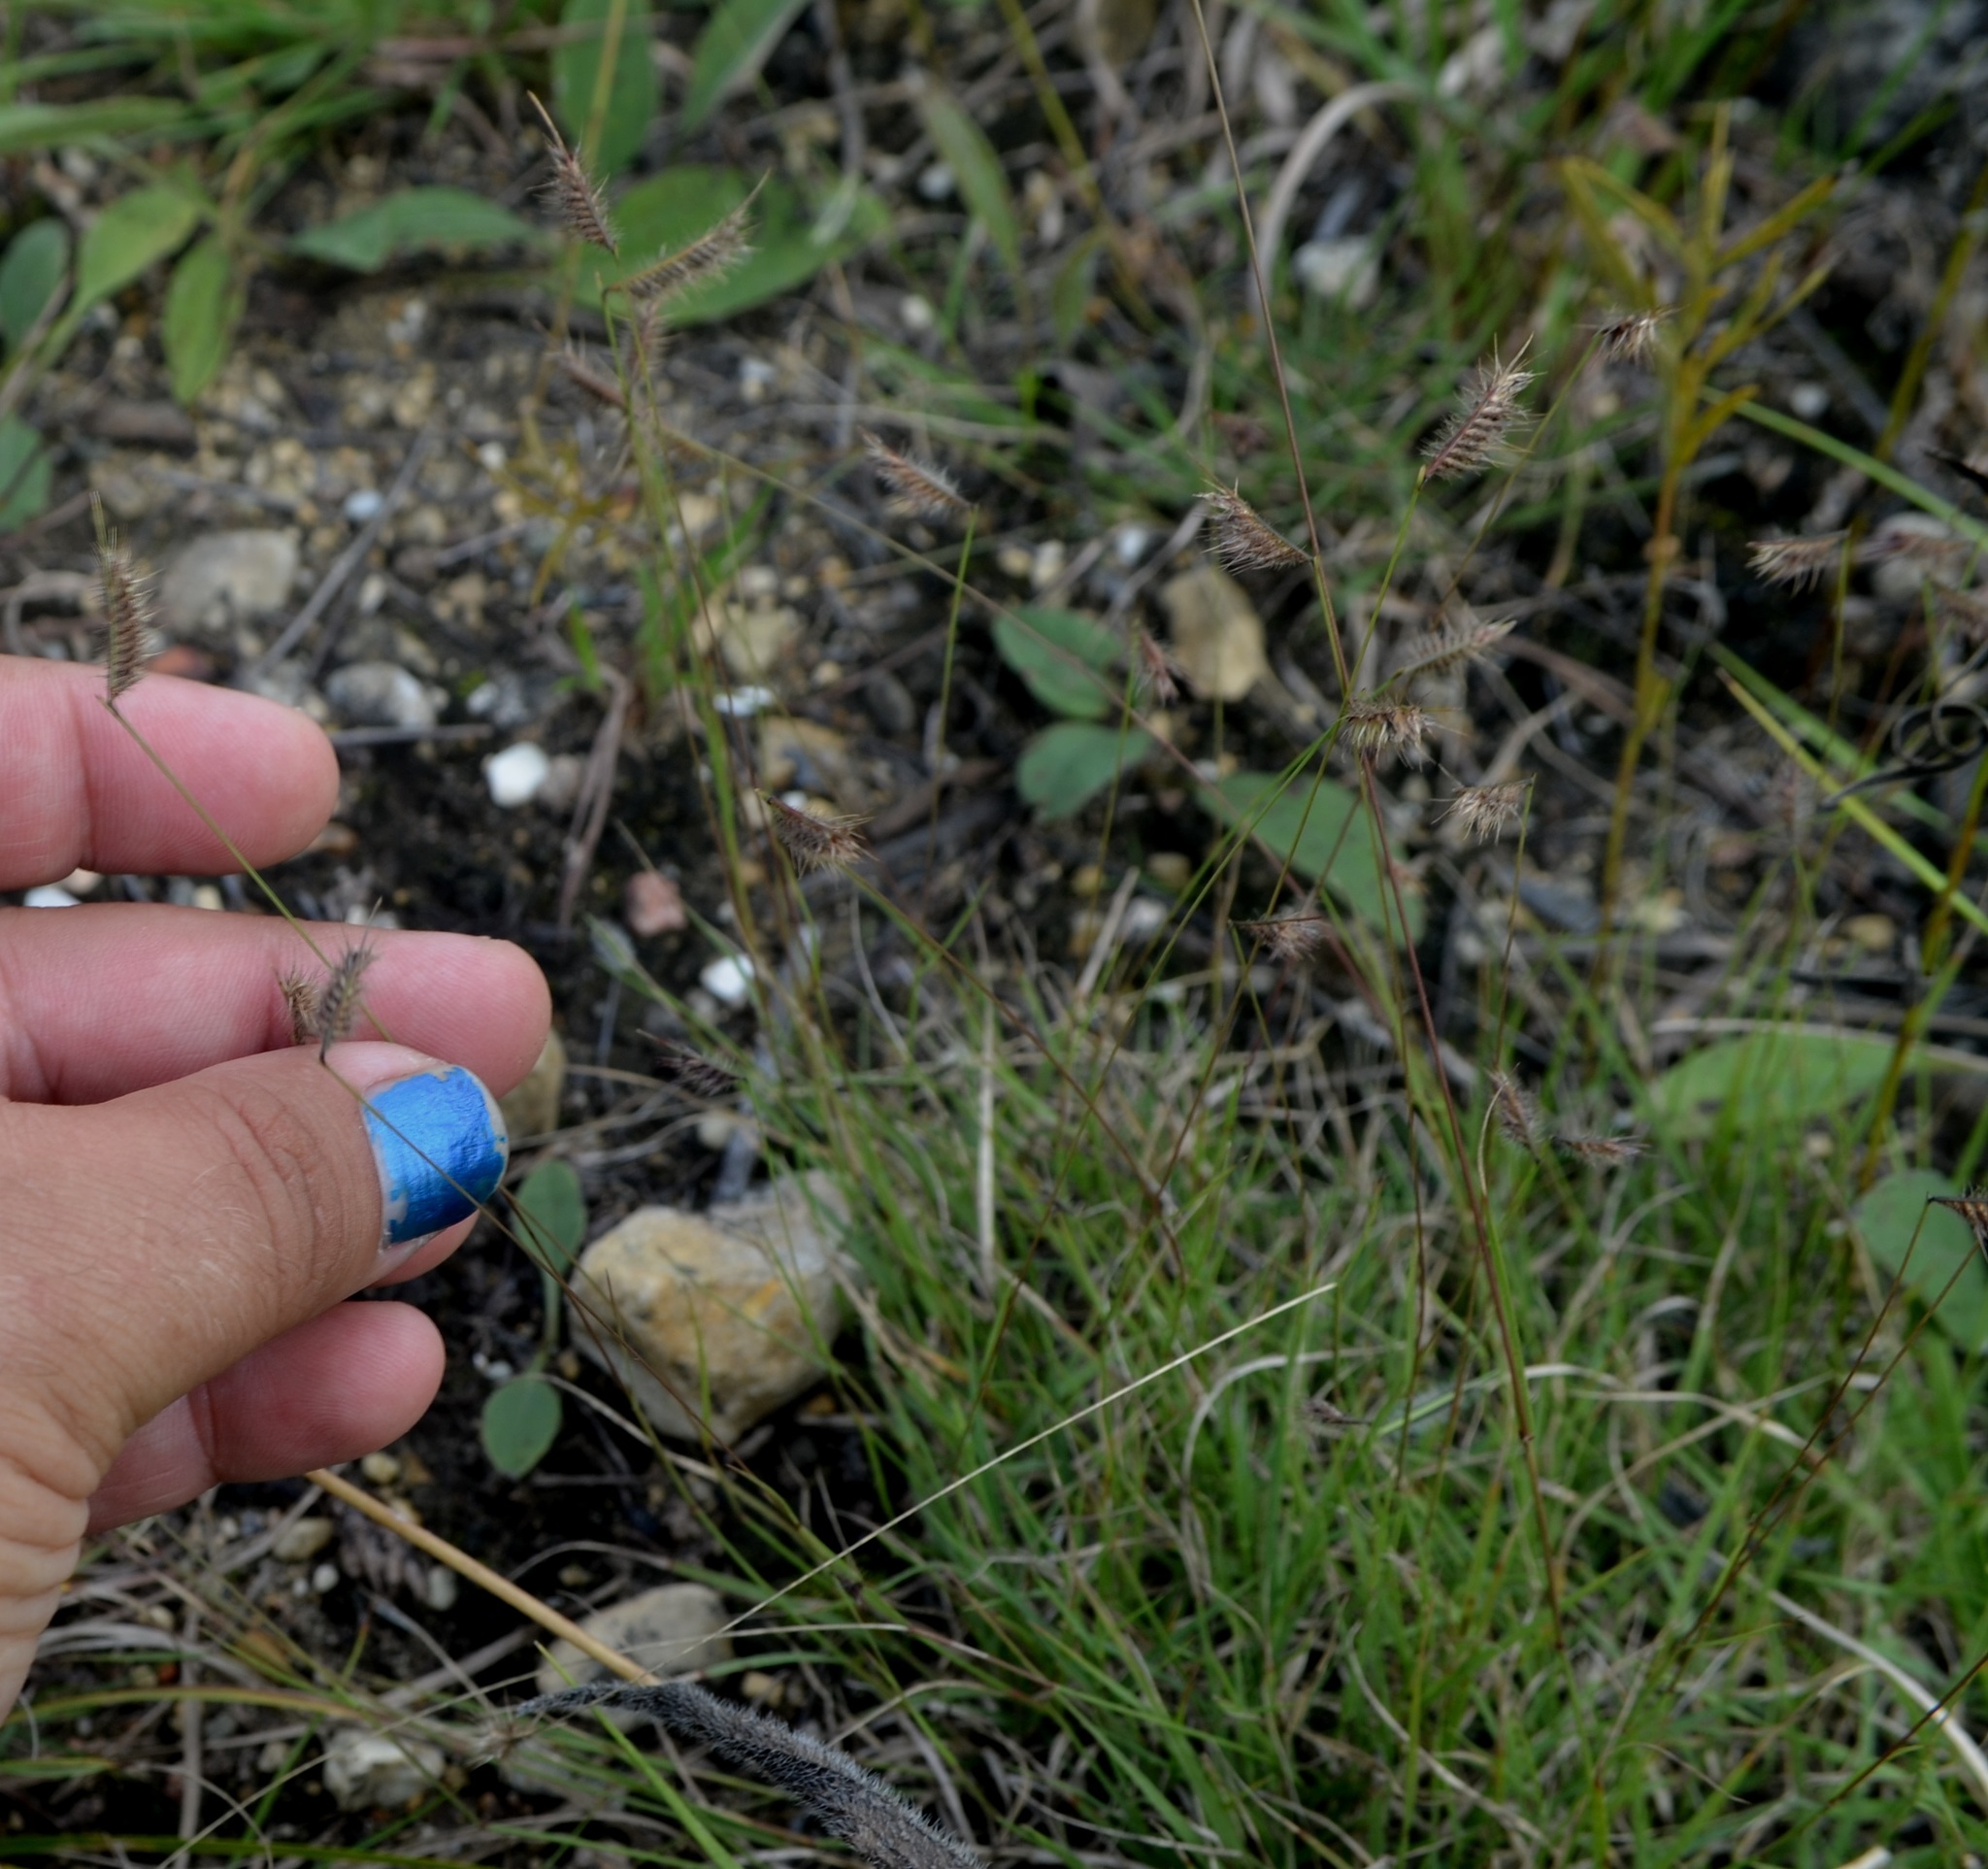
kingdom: Plantae
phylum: Tracheophyta
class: Liliopsida
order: Poales
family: Poaceae
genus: Bouteloua
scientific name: Bouteloua hirsuta
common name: Hairy grama
